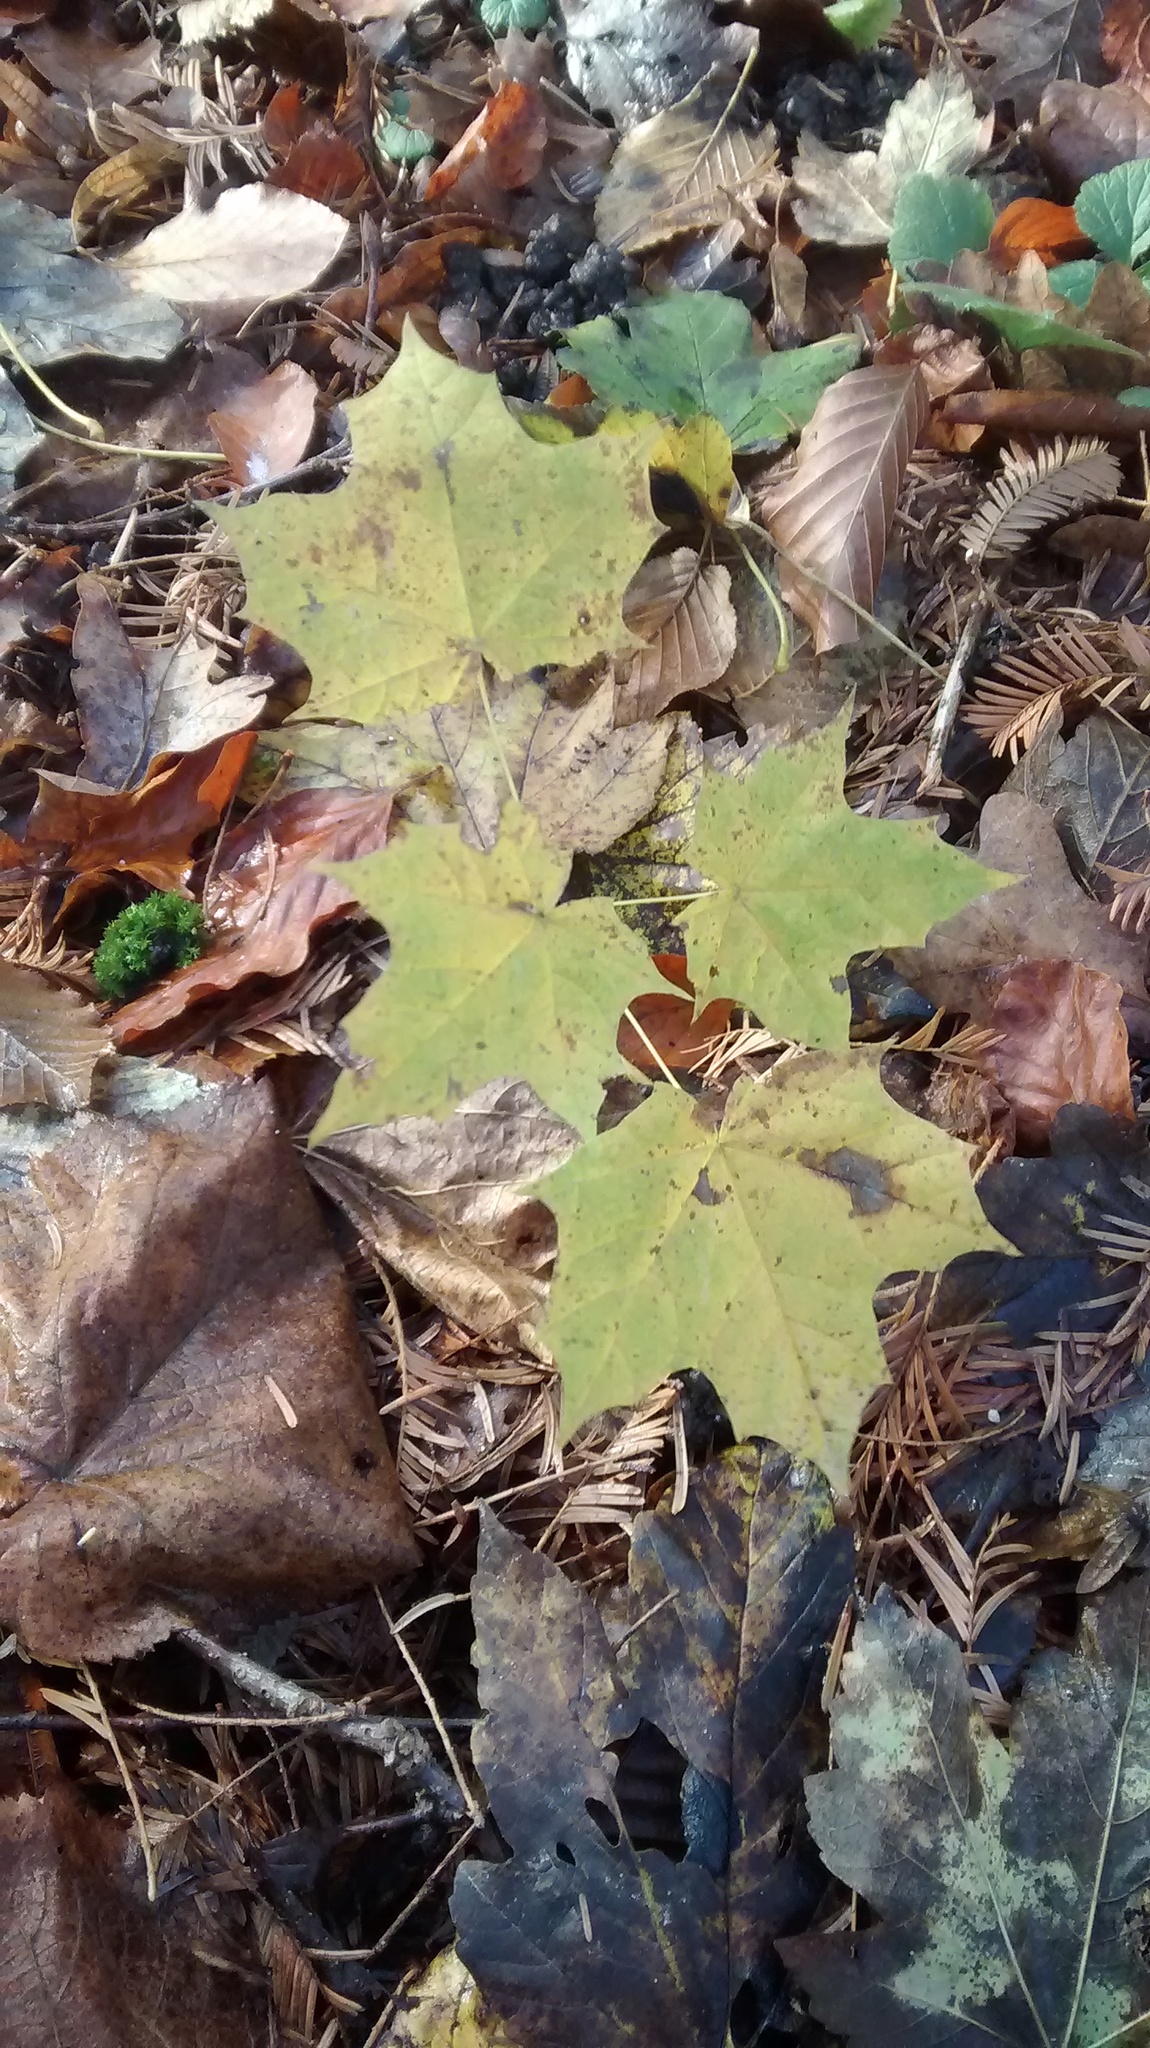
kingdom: Plantae
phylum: Tracheophyta
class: Magnoliopsida
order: Sapindales
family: Sapindaceae
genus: Acer
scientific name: Acer platanoides
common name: Norway maple
